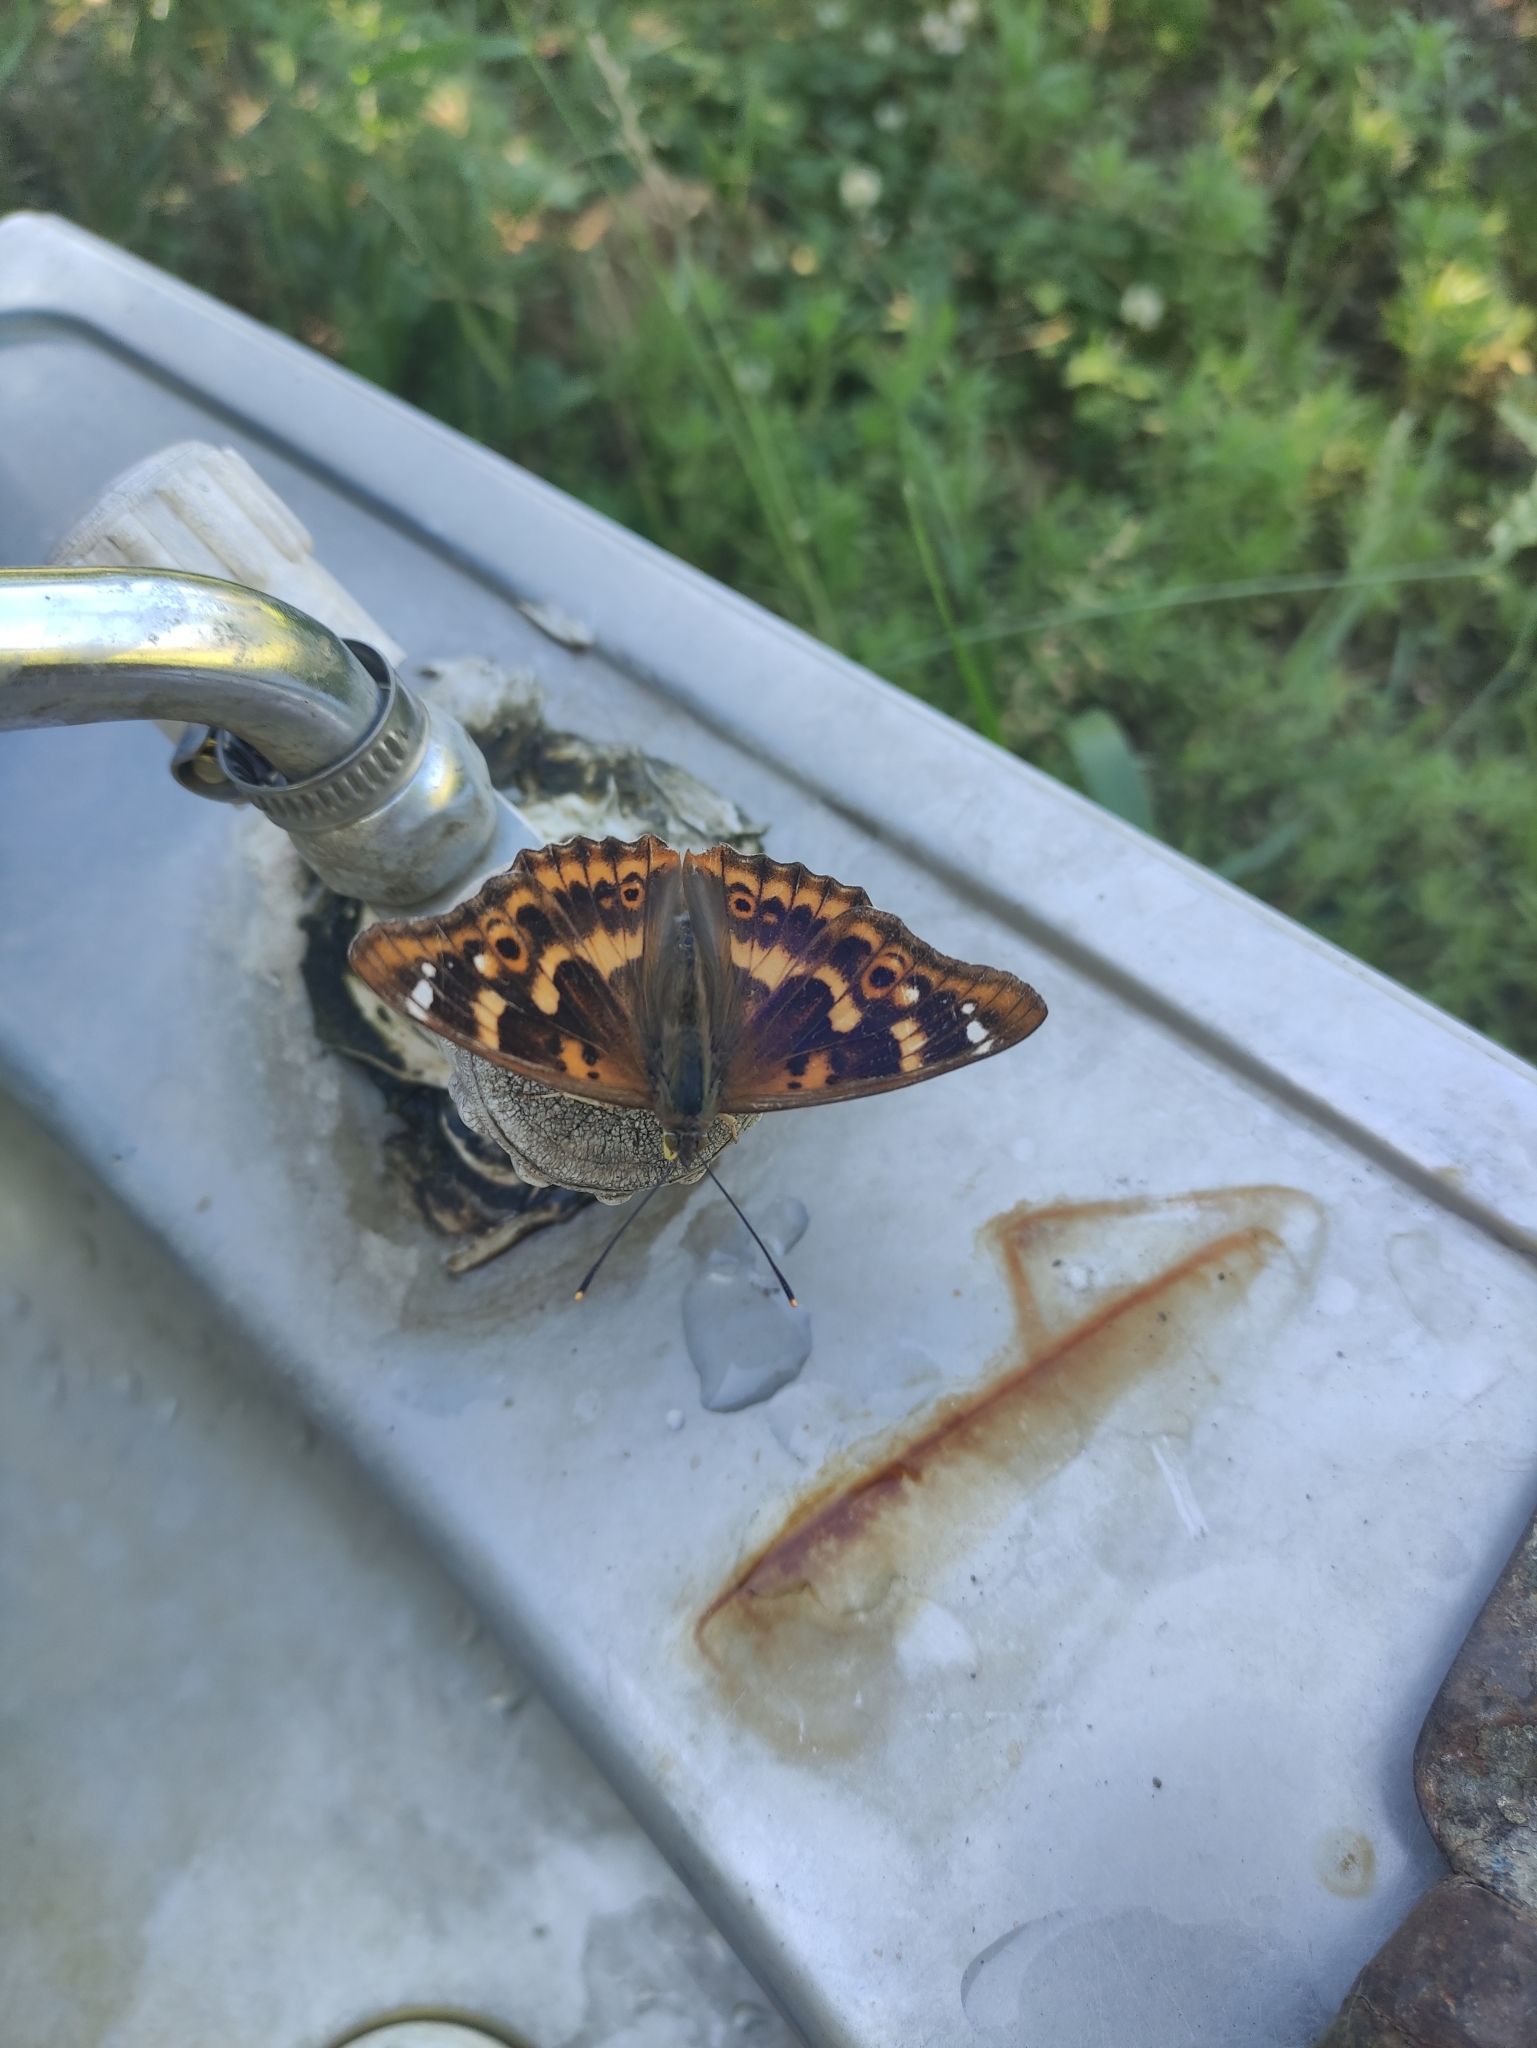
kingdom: Animalia
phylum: Arthropoda
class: Insecta
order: Lepidoptera
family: Nymphalidae
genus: Apatura
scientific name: Apatura ilia
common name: Lesser purple emperor
